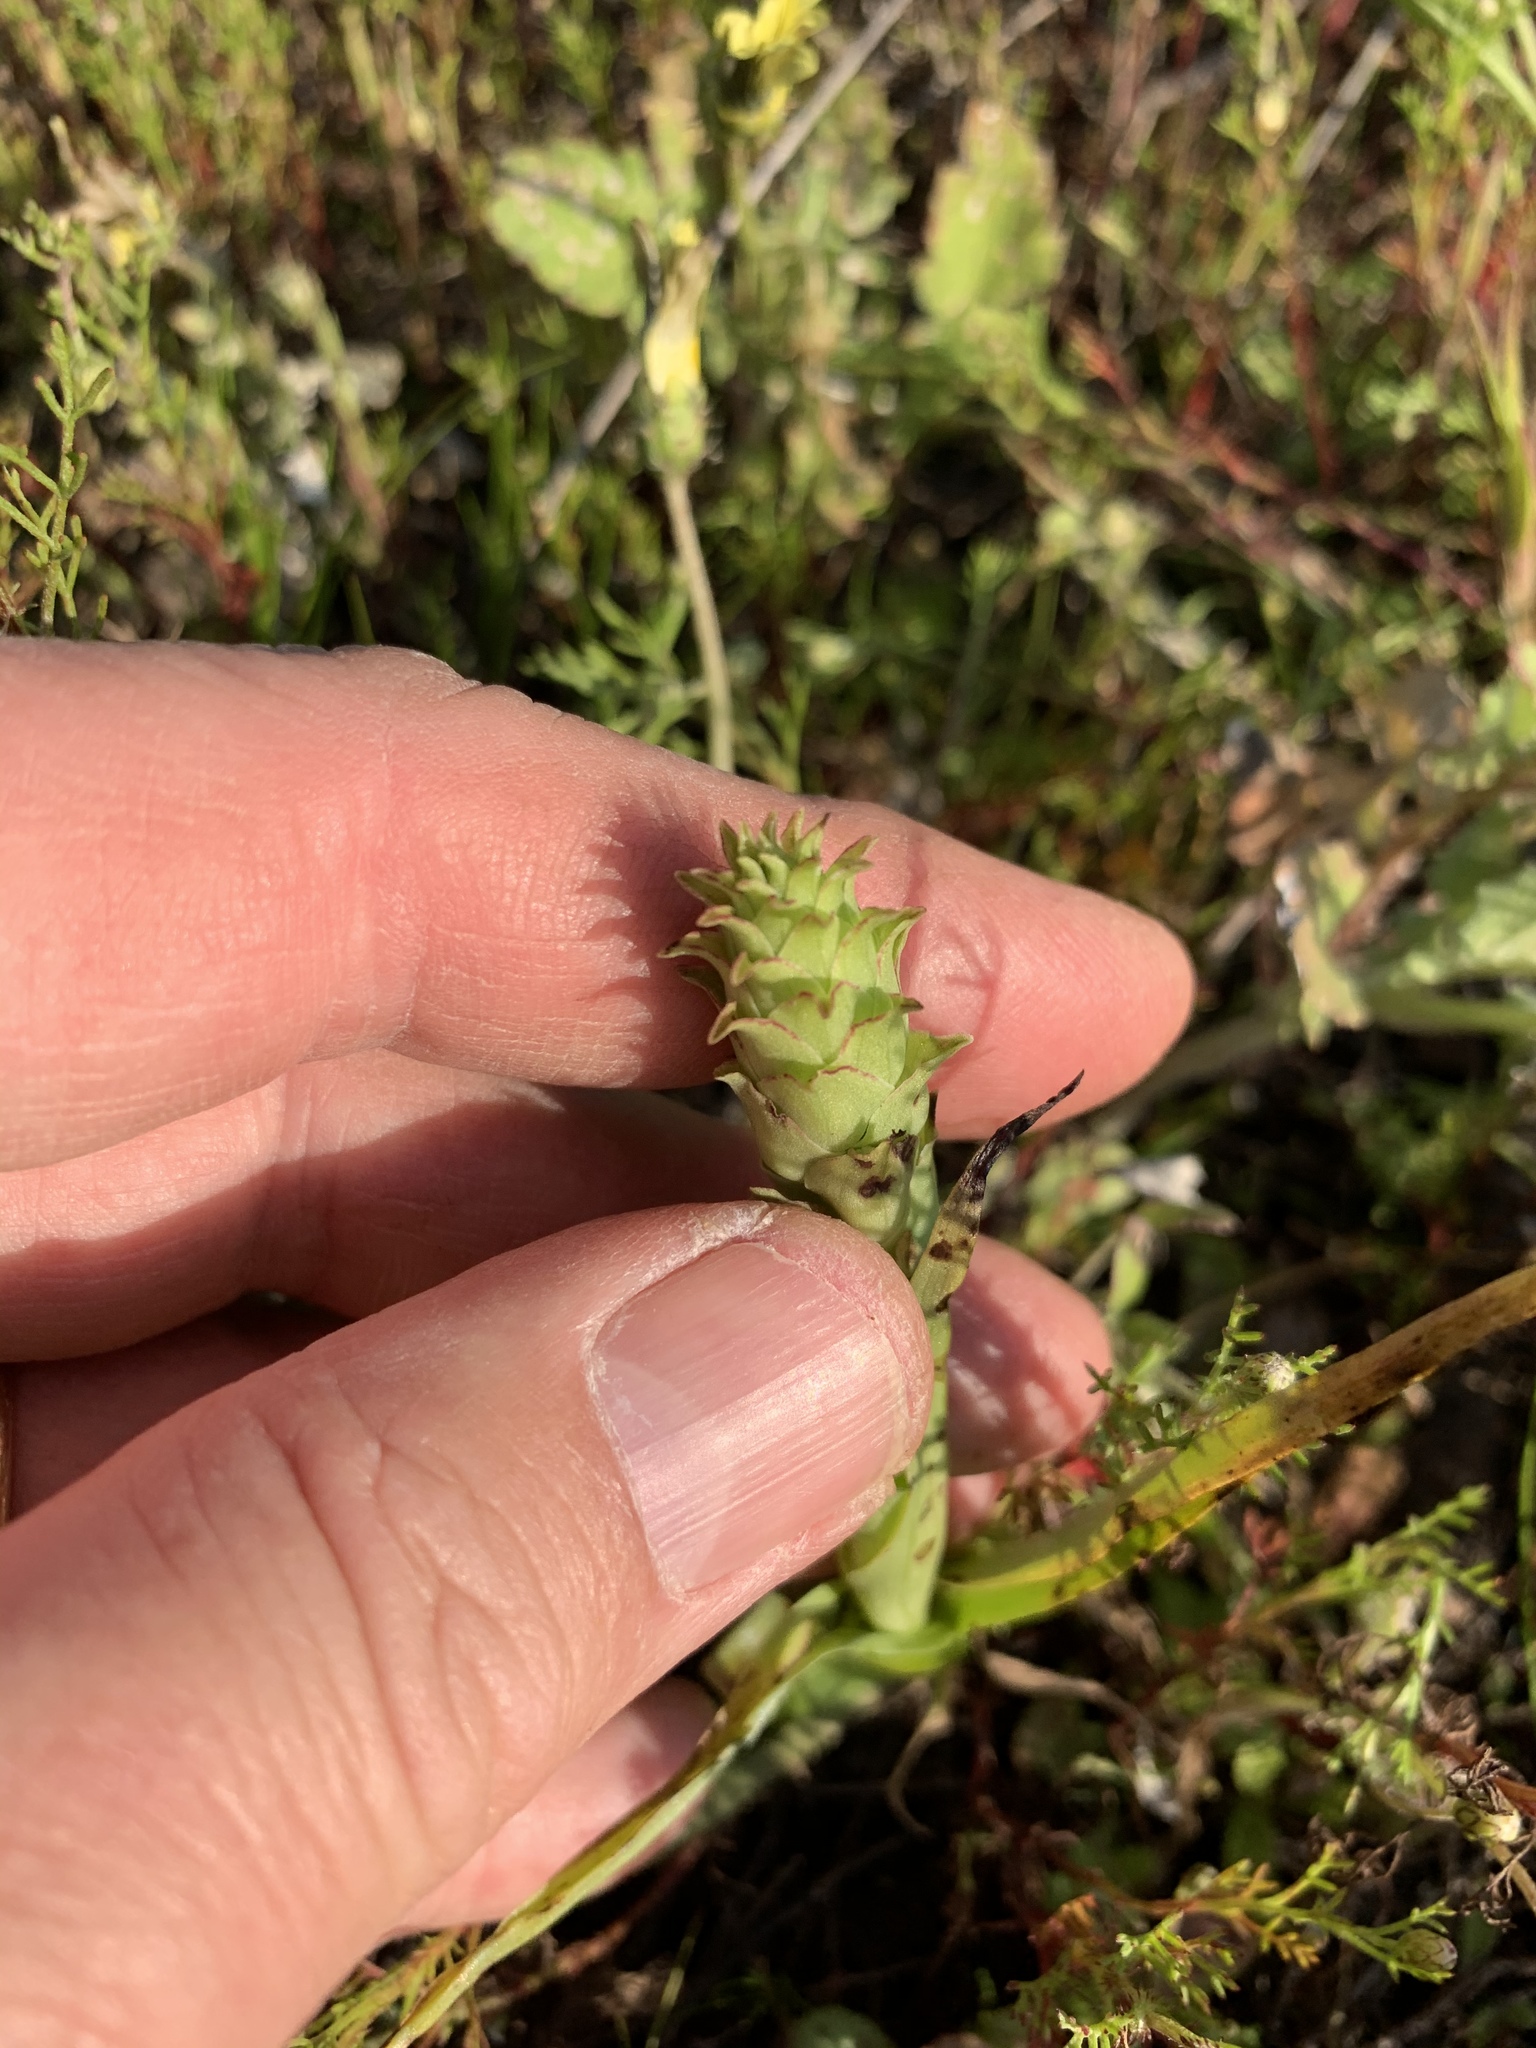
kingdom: Plantae
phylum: Tracheophyta
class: Liliopsida
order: Asparagales
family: Orchidaceae
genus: Corycium
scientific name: Corycium orobanchoides
